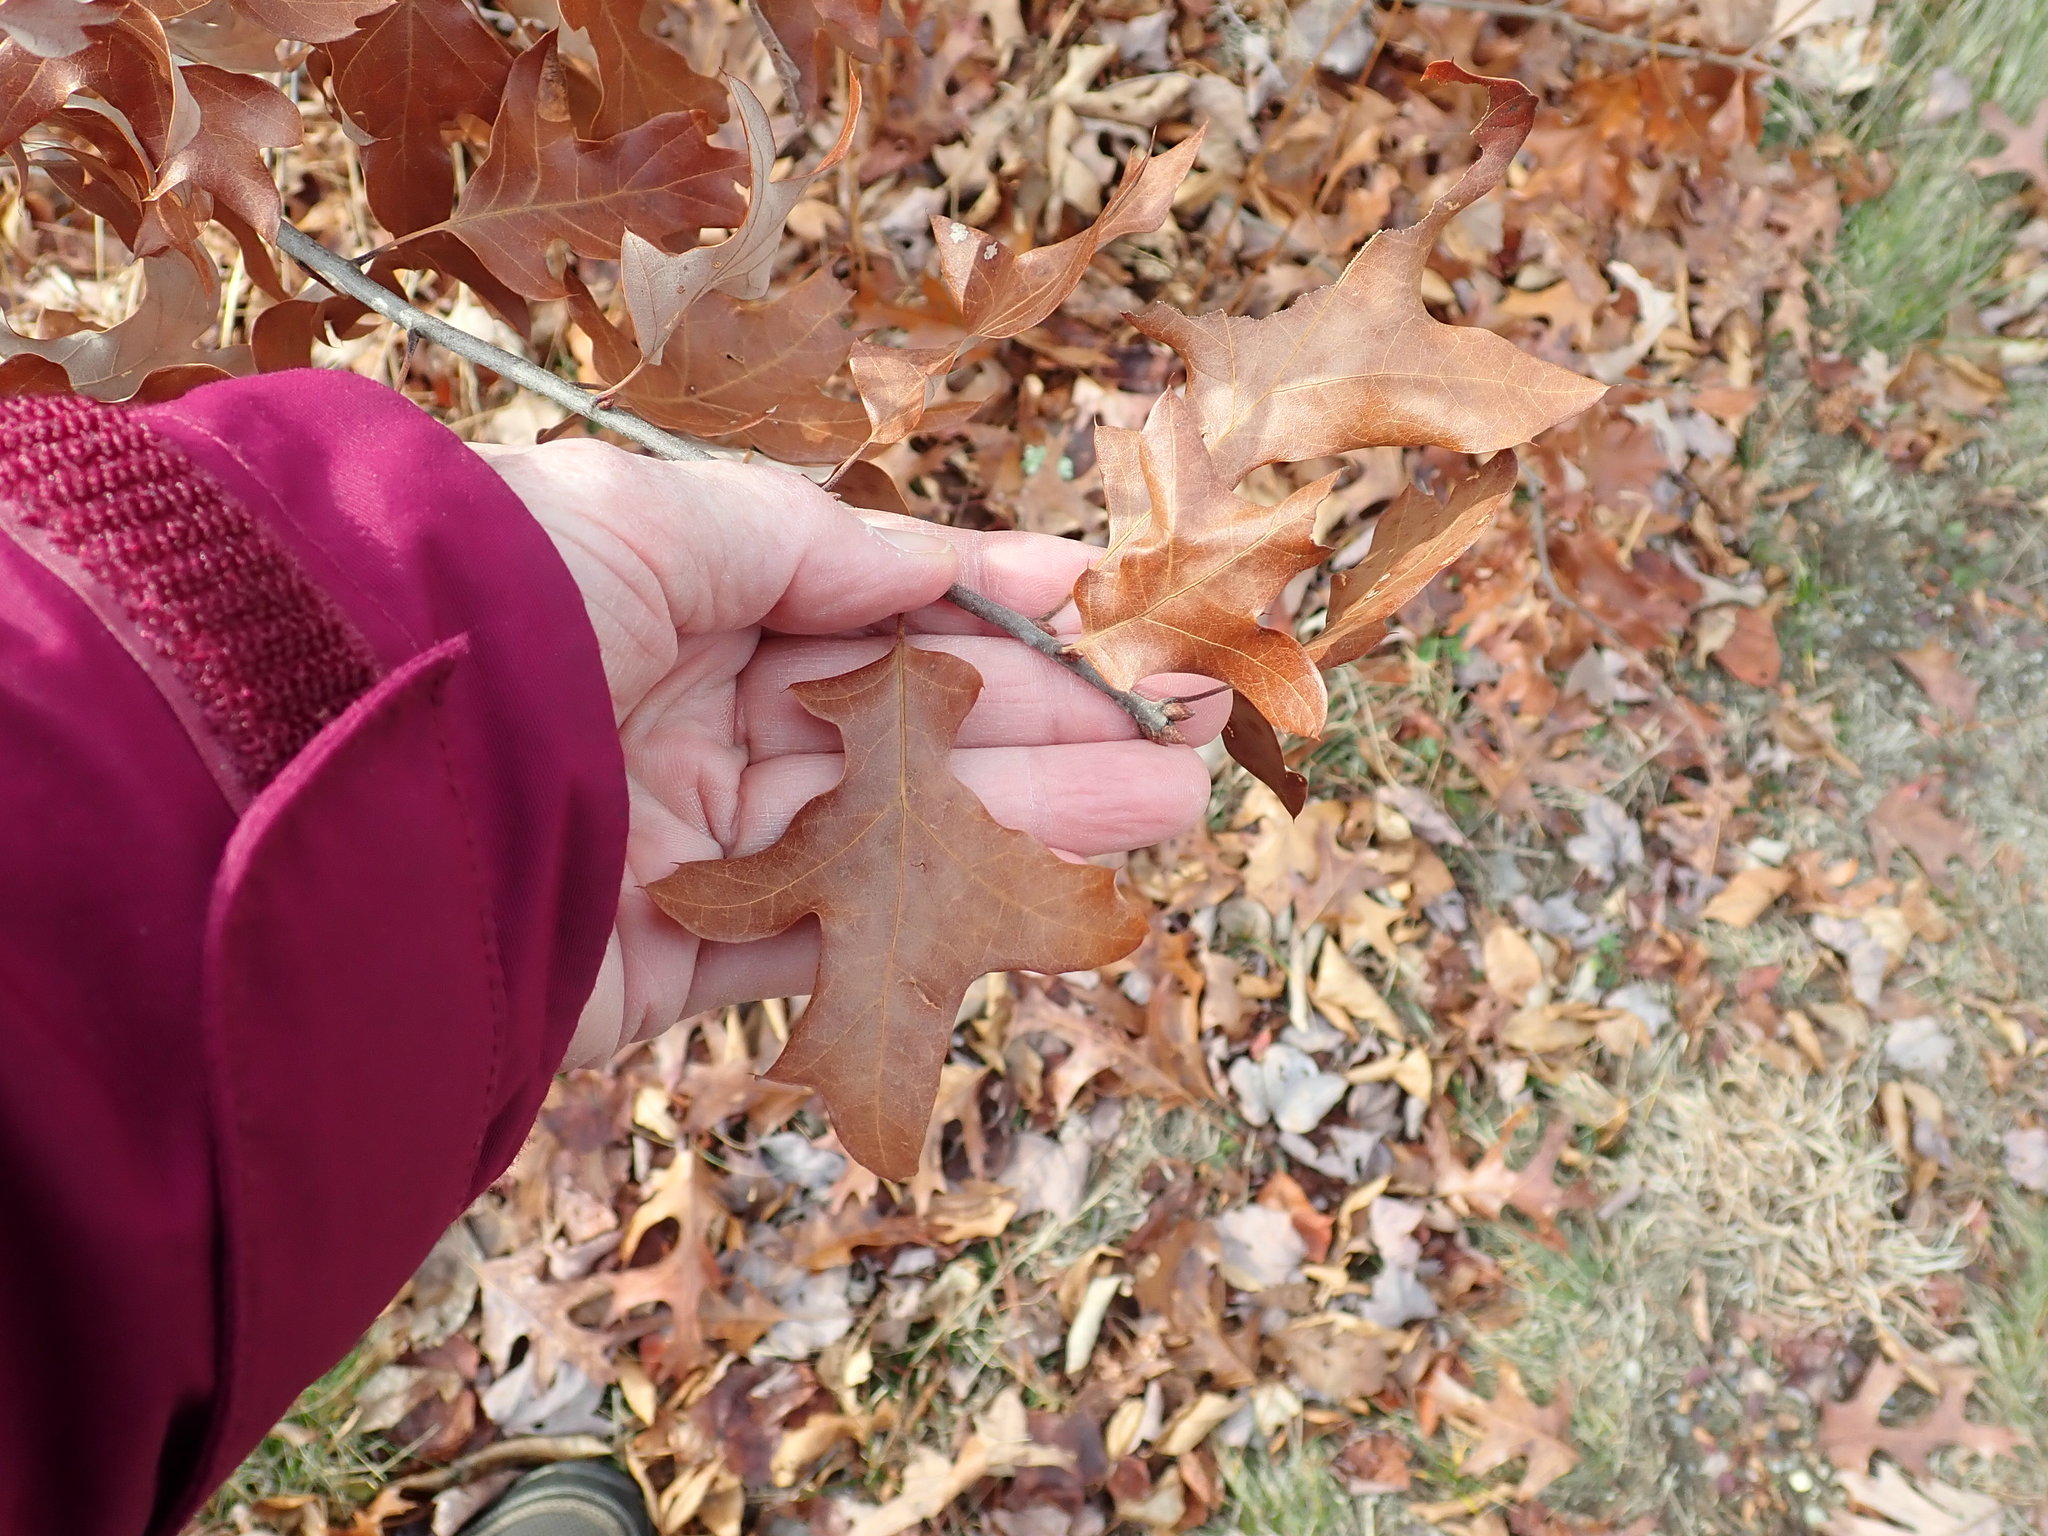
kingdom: Plantae
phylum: Tracheophyta
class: Magnoliopsida
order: Fagales
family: Fagaceae
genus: Quercus
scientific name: Quercus ilicifolia
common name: Bear oak
